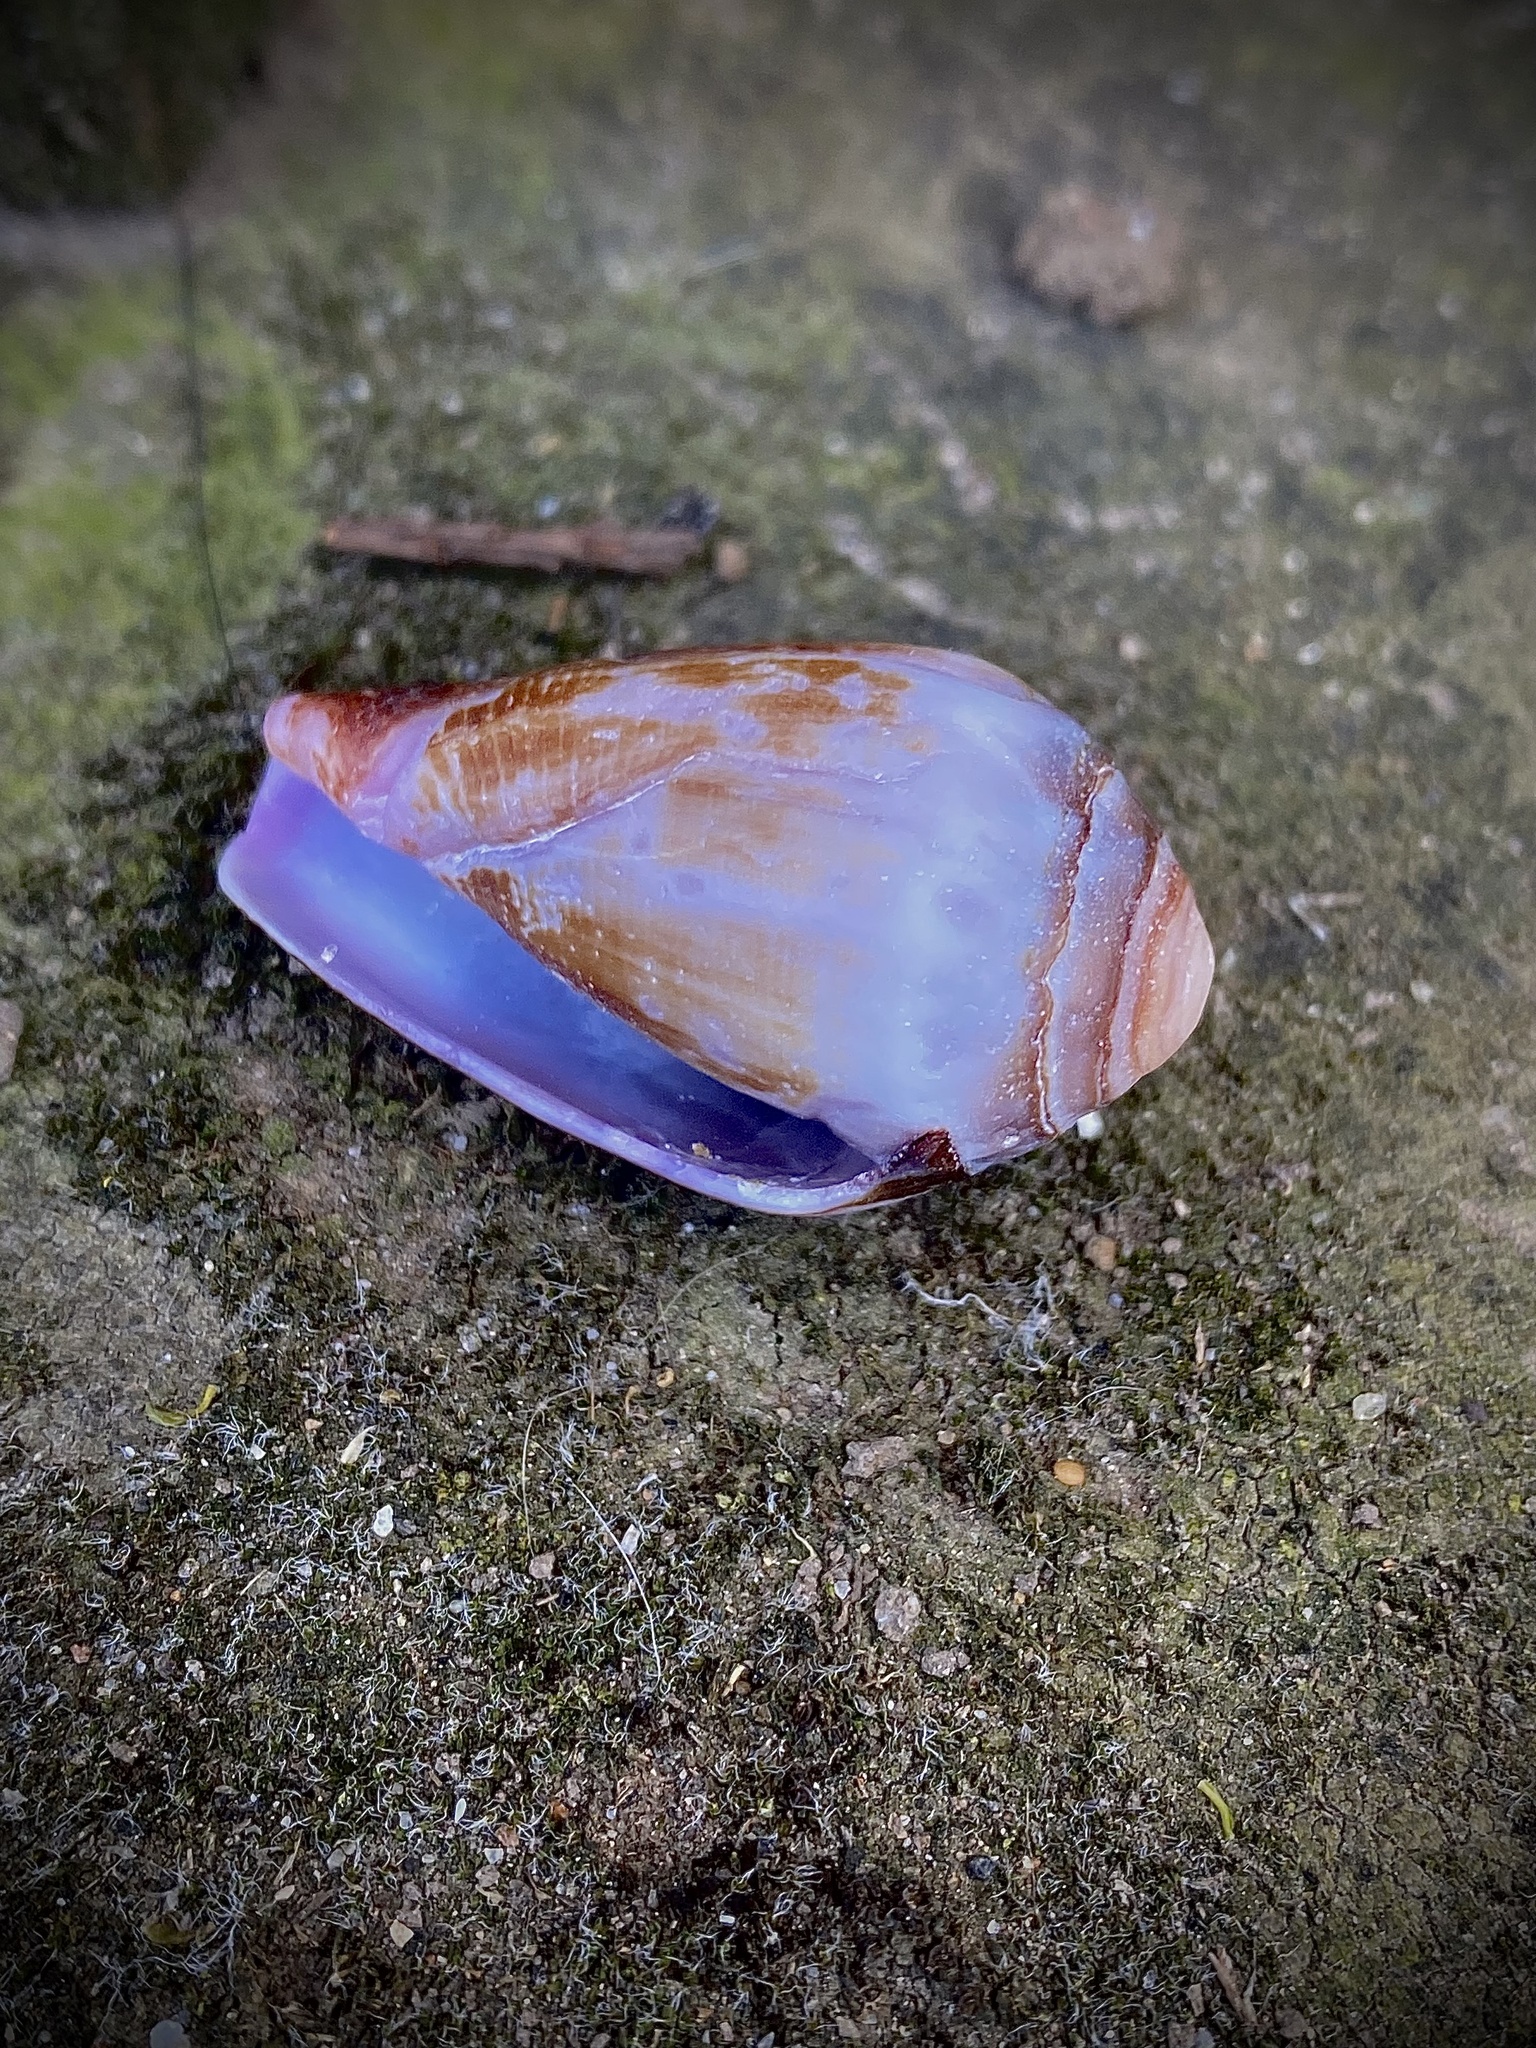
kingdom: Animalia
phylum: Mollusca
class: Gastropoda
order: Neogastropoda
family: Conidae
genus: Californiconus
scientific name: Californiconus californicus
